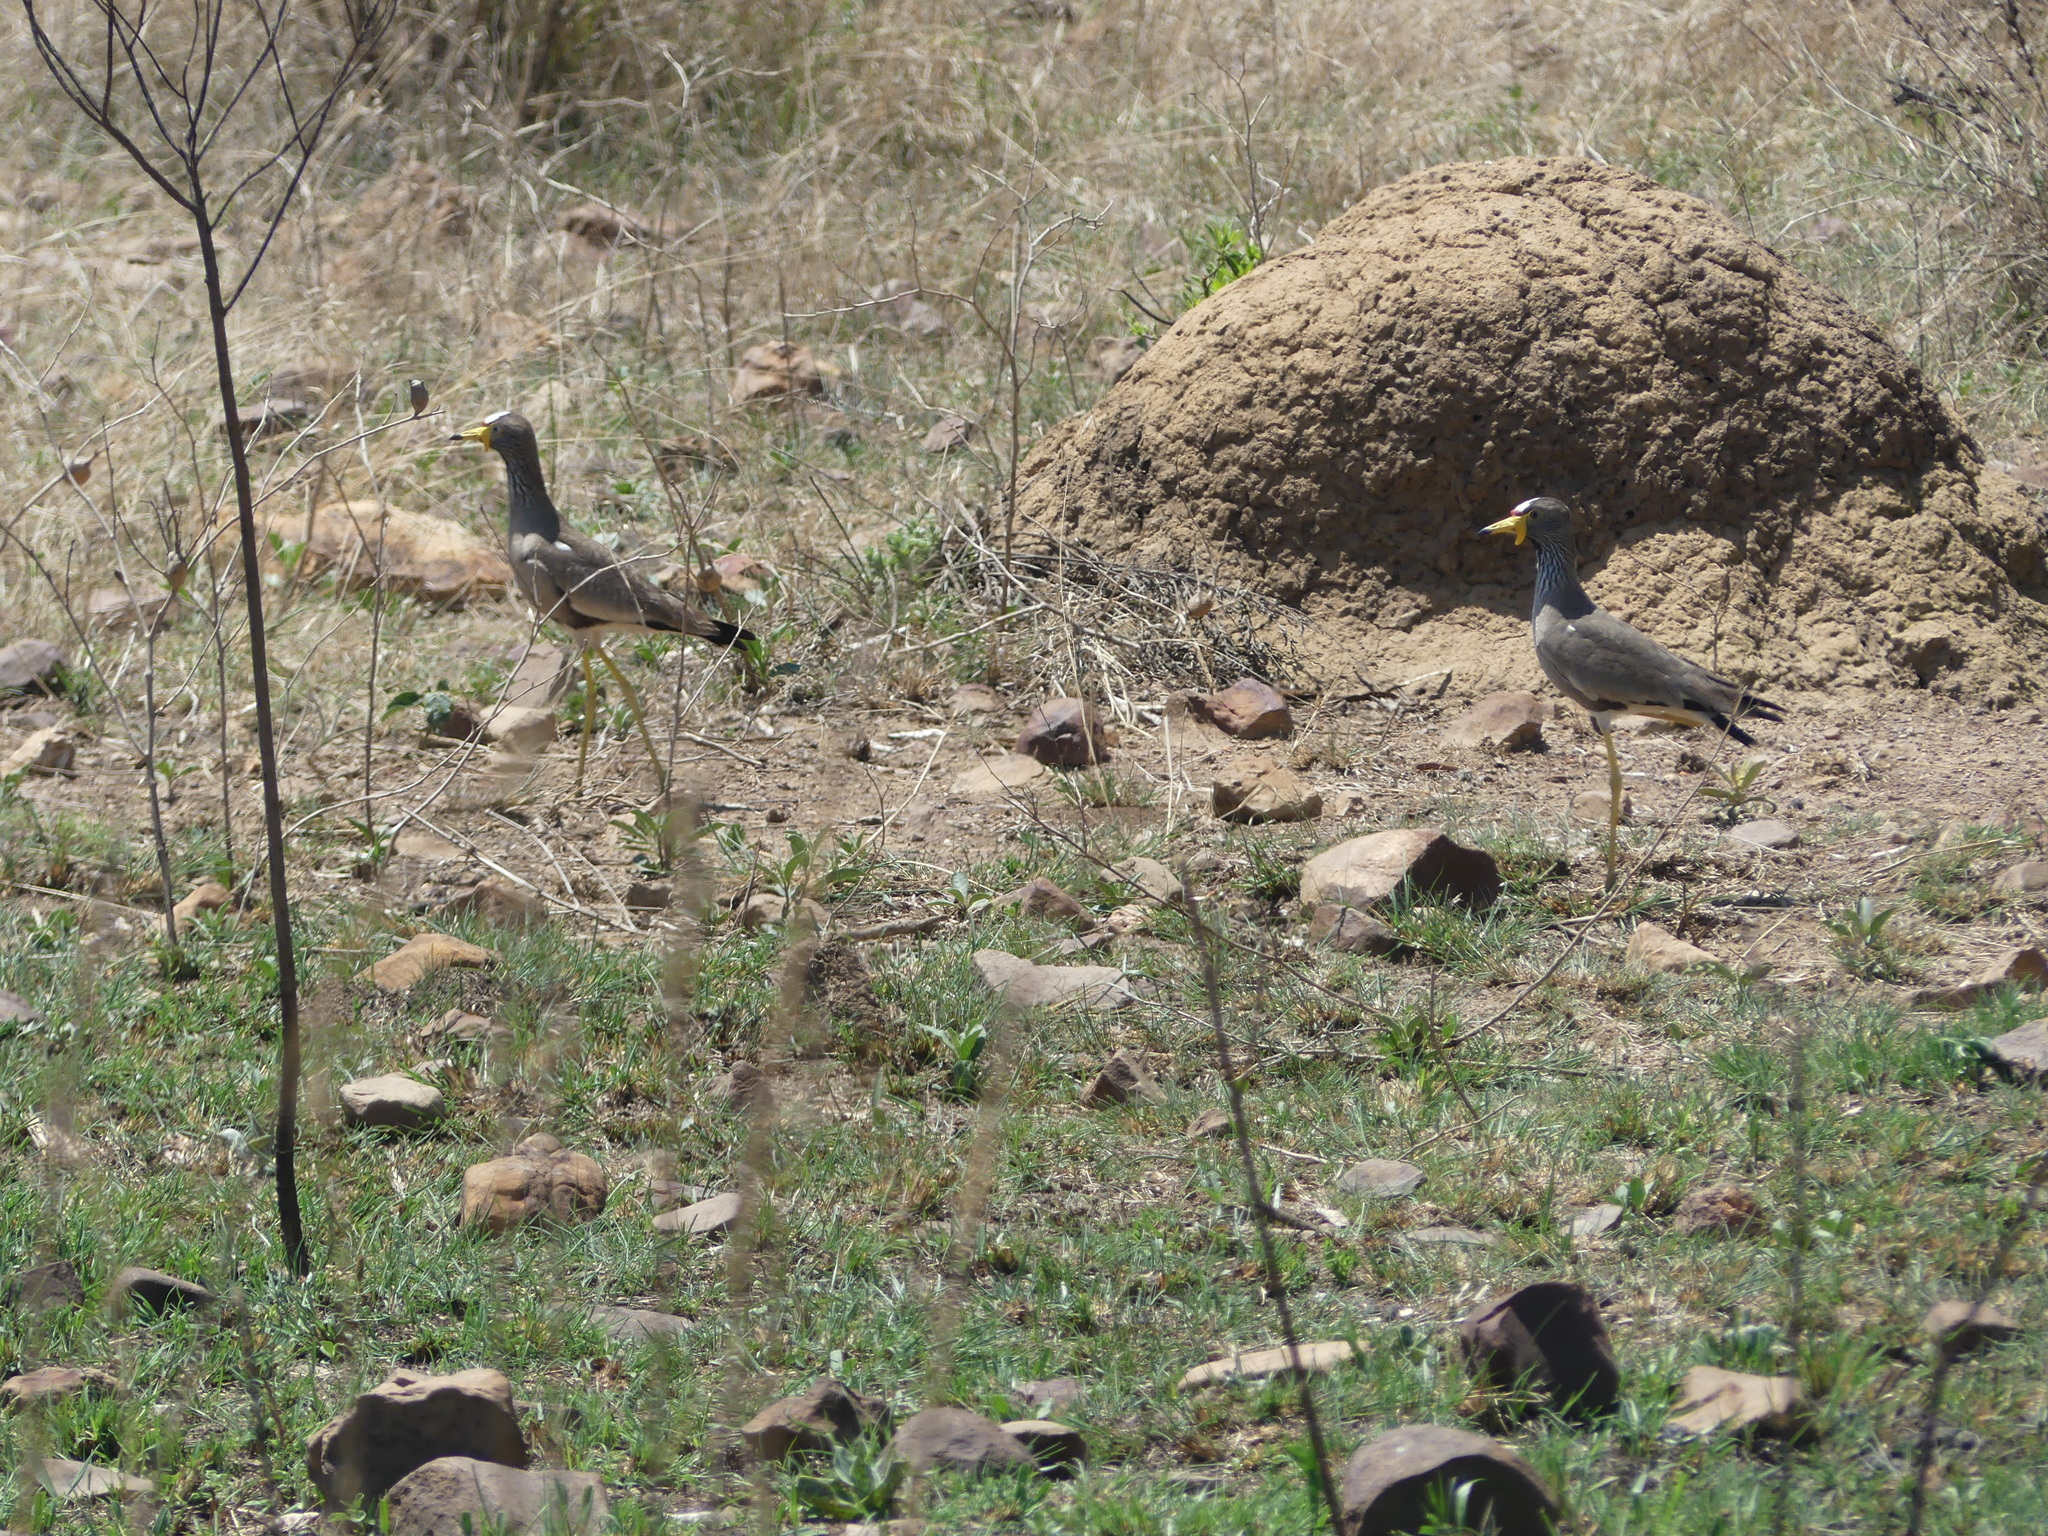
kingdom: Animalia
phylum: Chordata
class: Aves
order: Charadriiformes
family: Charadriidae
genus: Vanellus
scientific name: Vanellus senegallus
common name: African wattled lapwing
